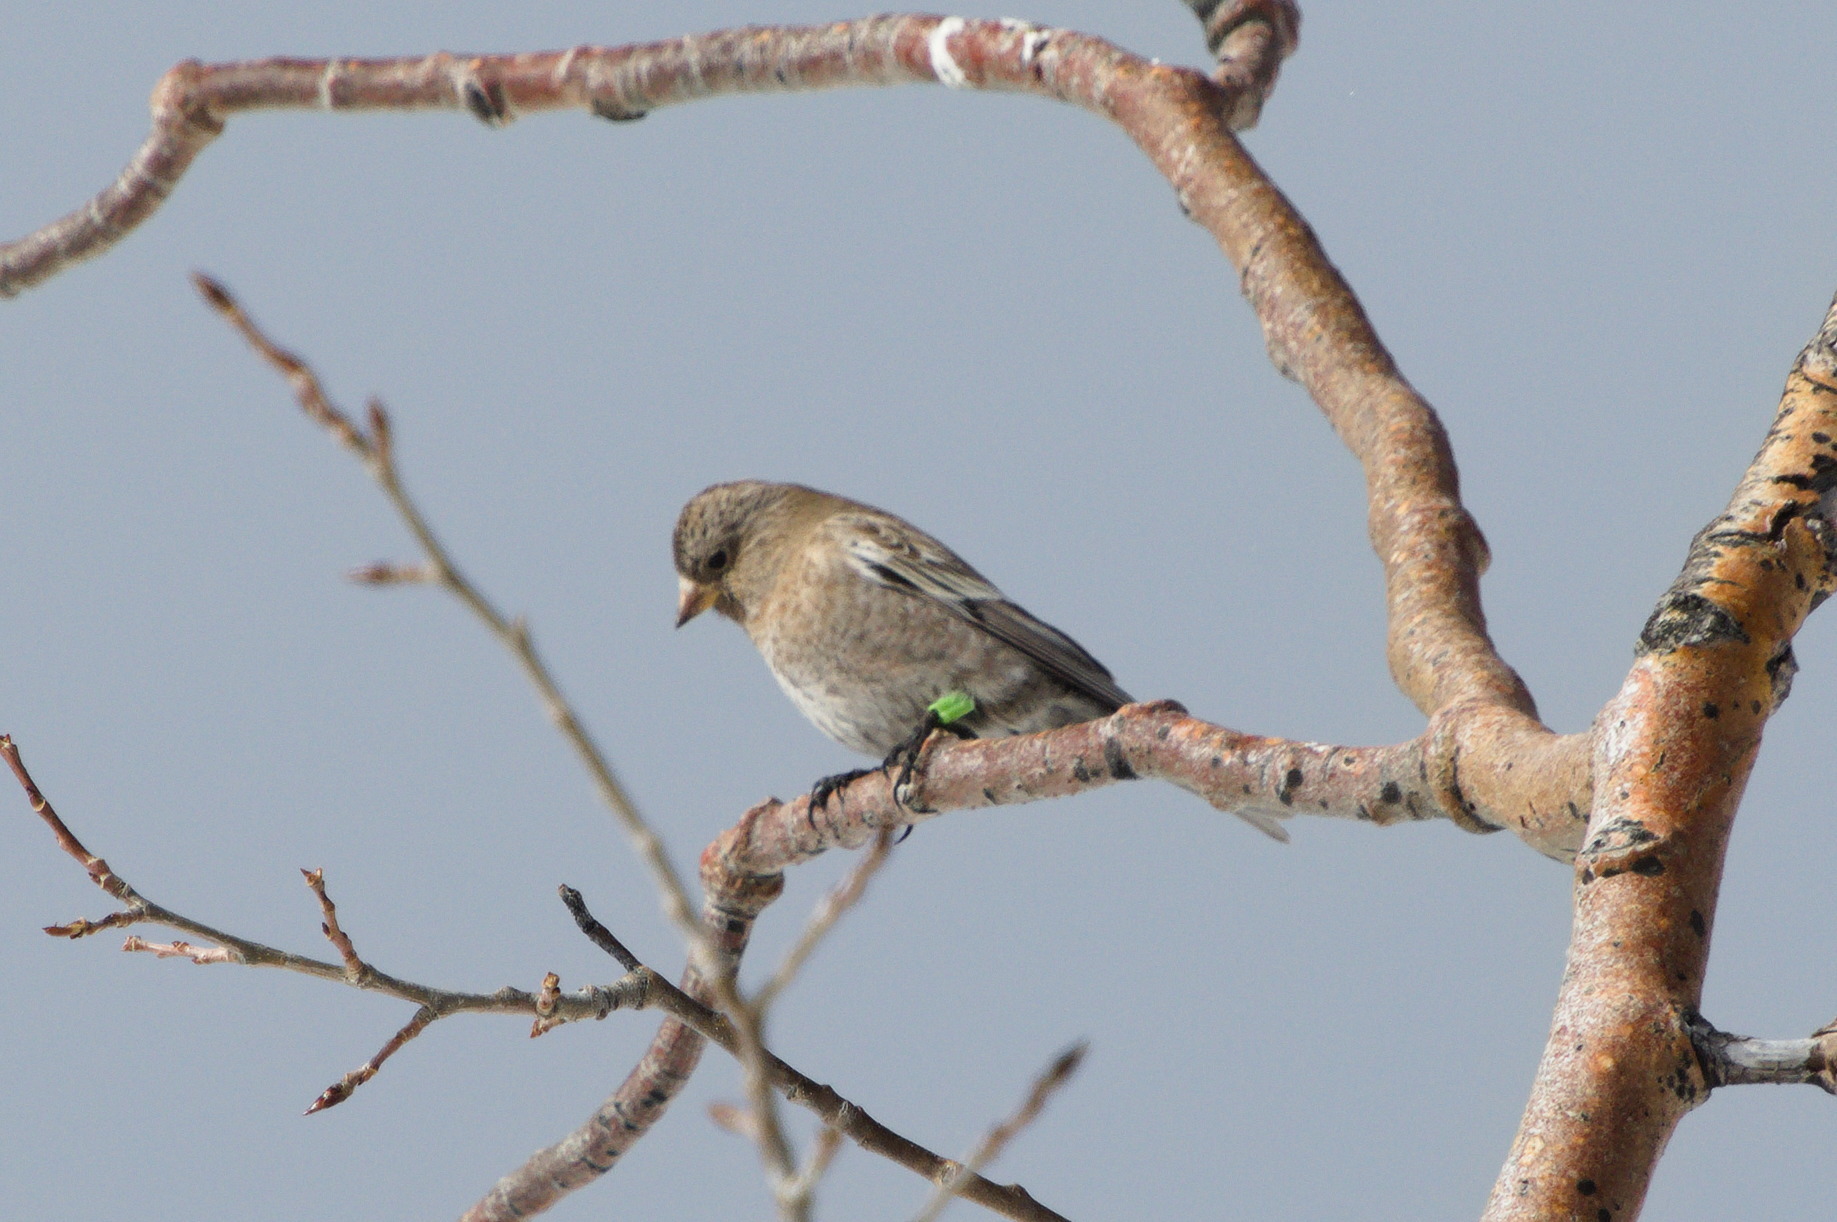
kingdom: Animalia
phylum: Chordata
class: Aves
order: Passeriformes
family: Fringillidae
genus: Leucosticte
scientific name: Leucosticte australis
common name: Brown-capped rosy-finch
